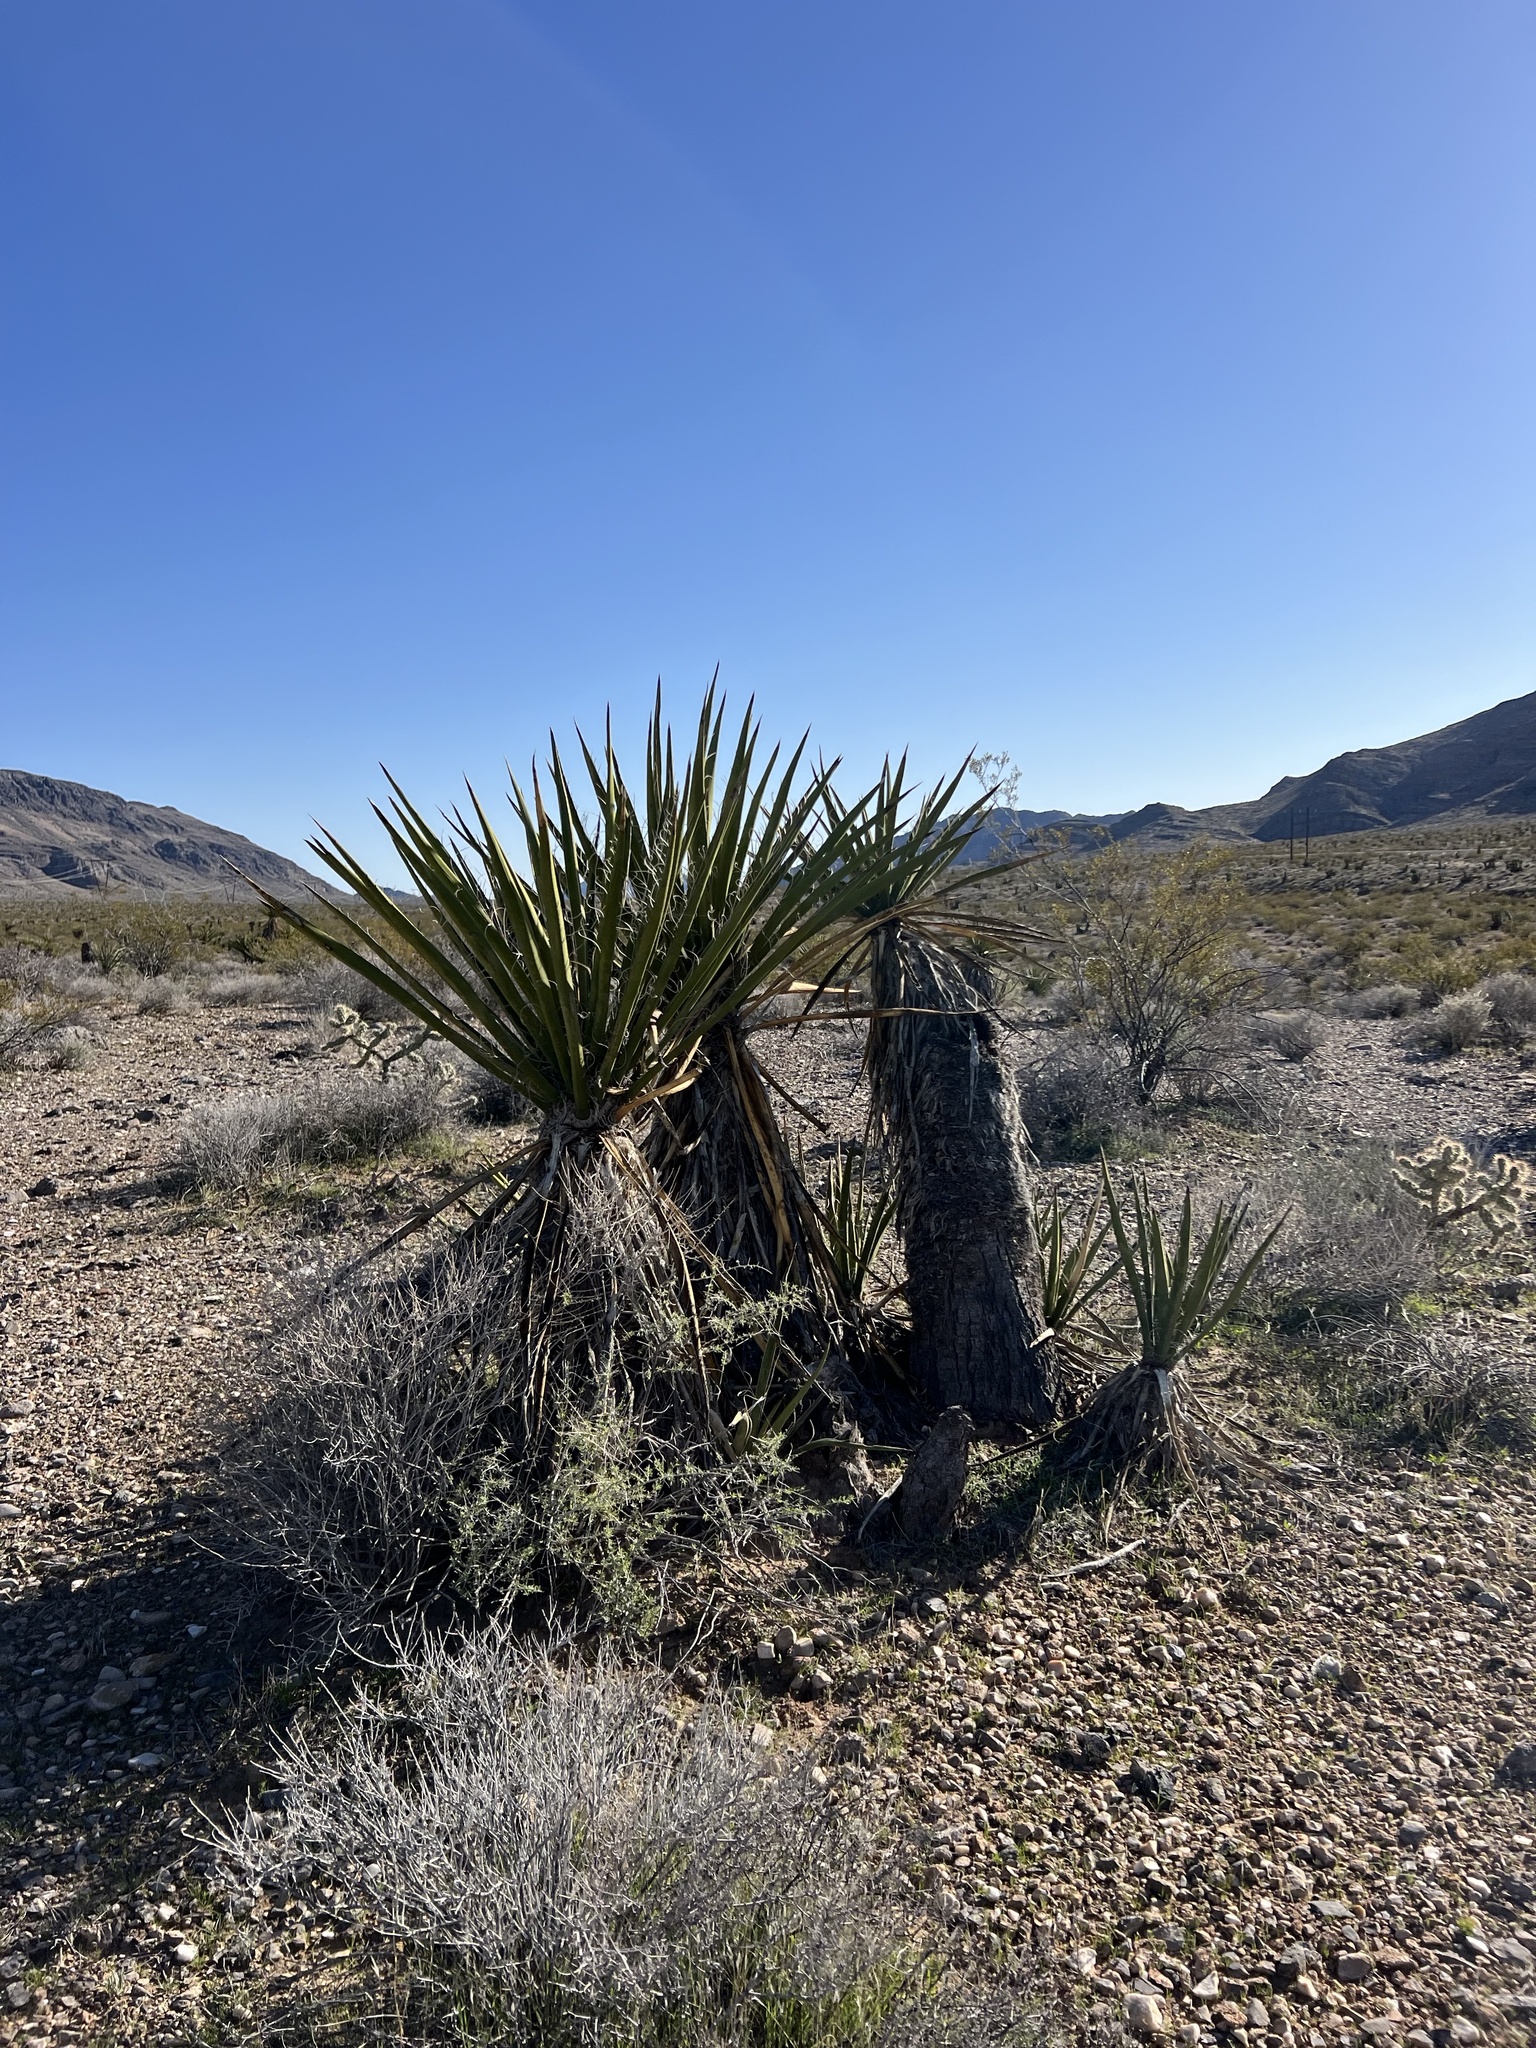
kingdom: Plantae
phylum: Tracheophyta
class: Liliopsida
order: Asparagales
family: Asparagaceae
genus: Yucca
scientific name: Yucca schidigera
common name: Mojave yucca
